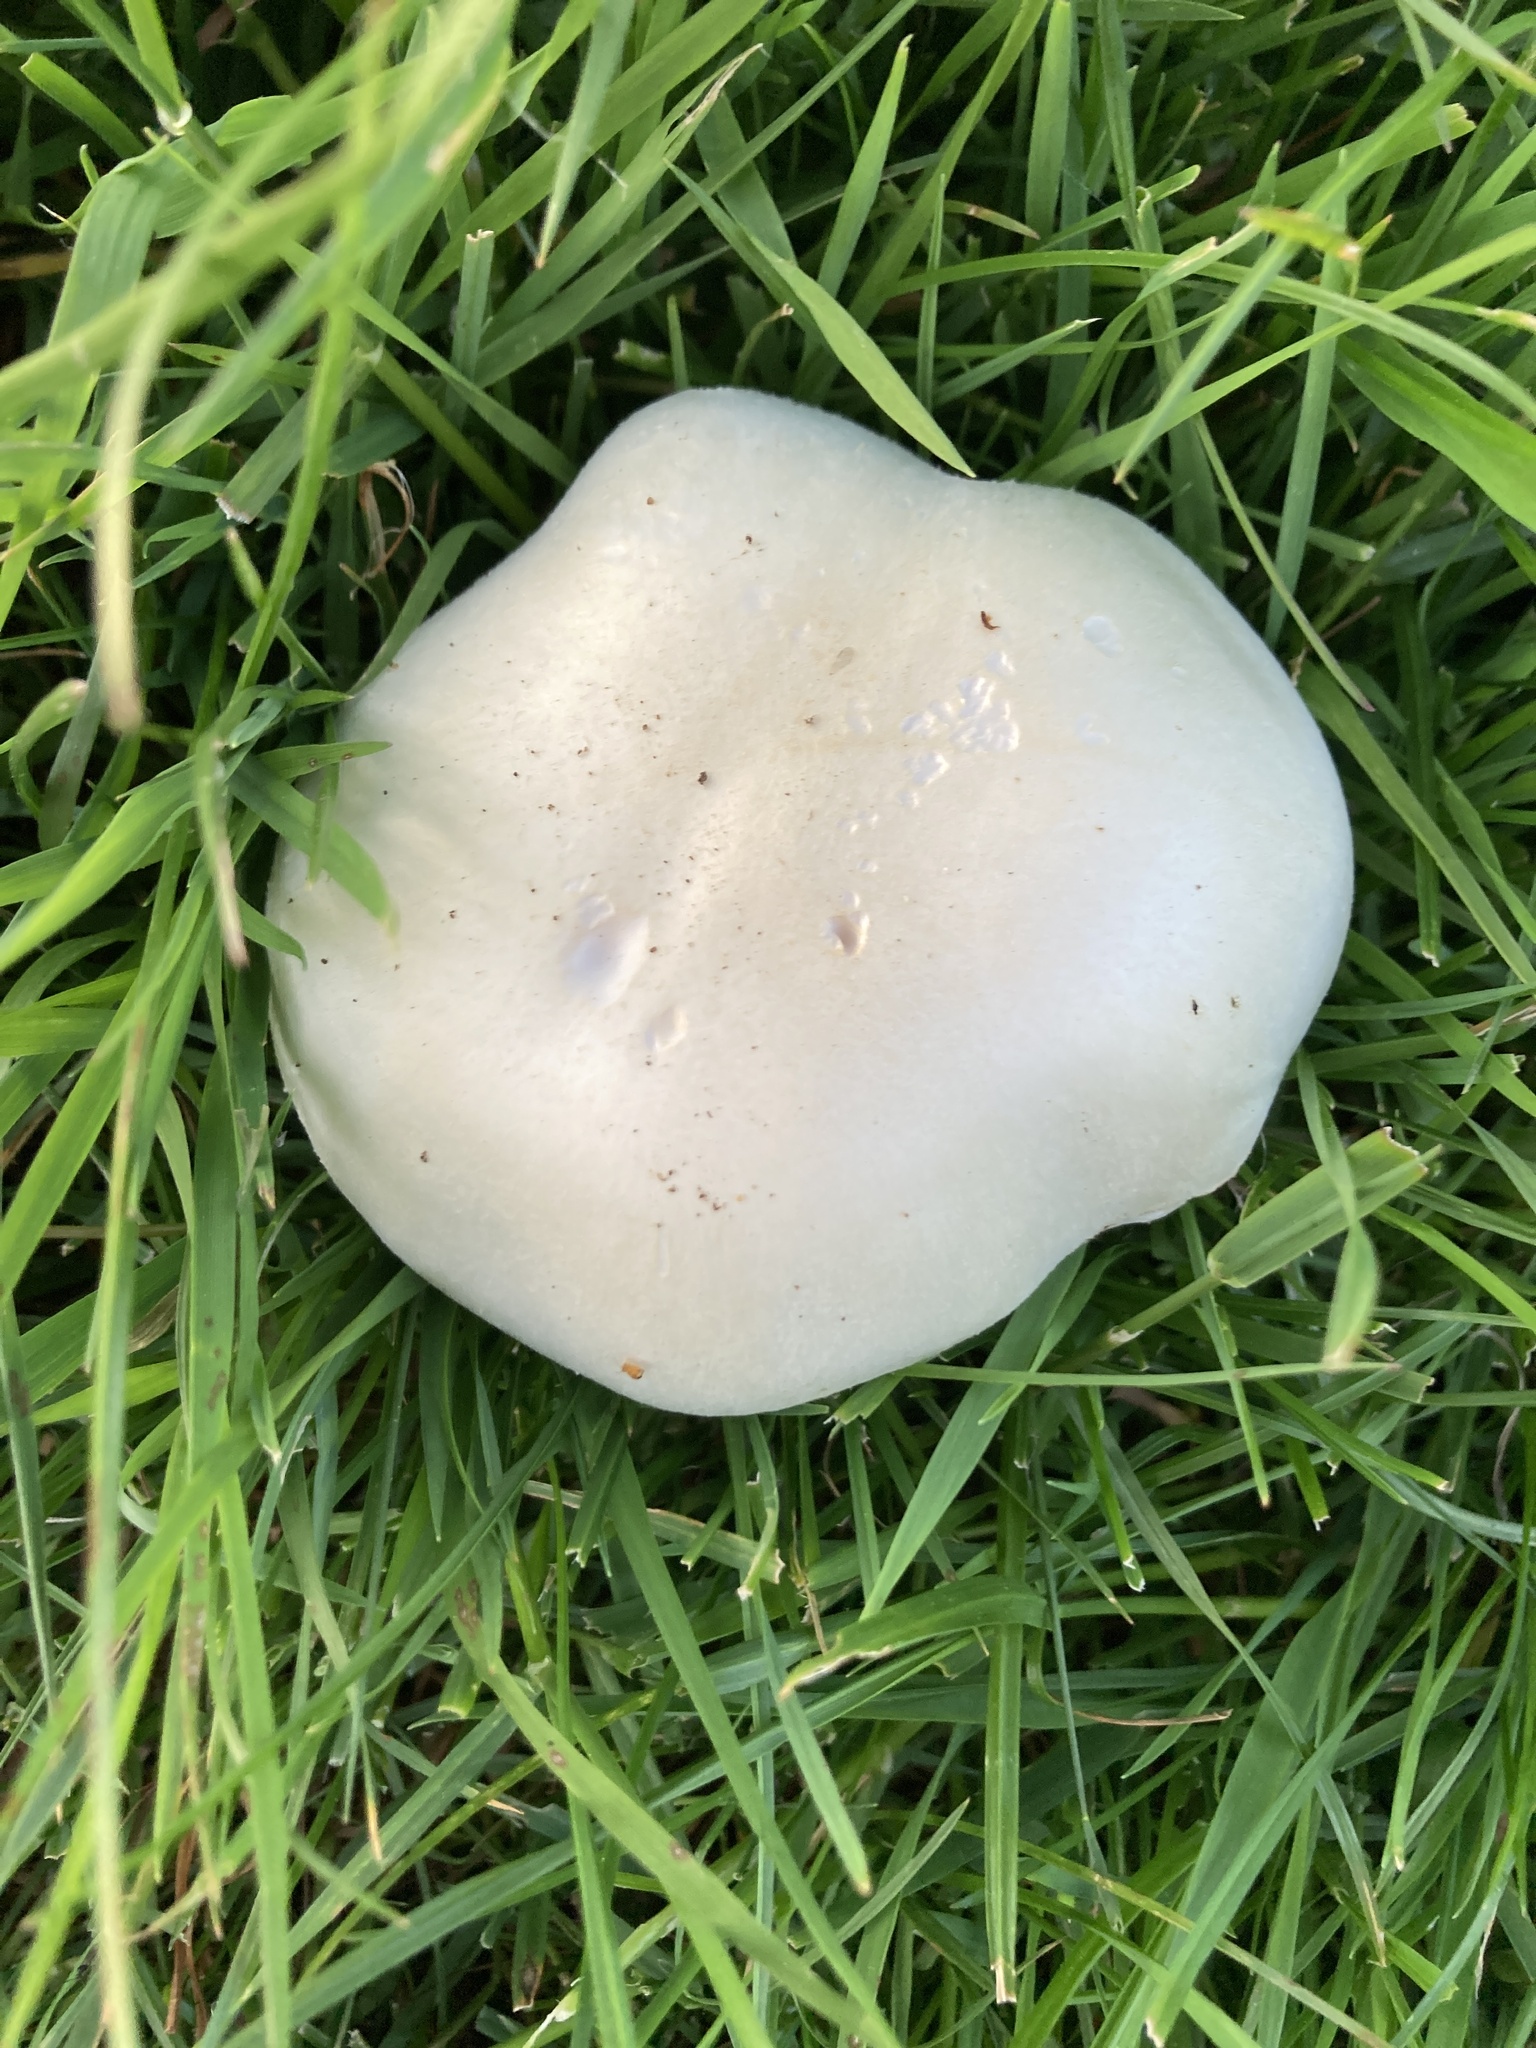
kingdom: Fungi
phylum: Basidiomycota
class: Agaricomycetes
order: Agaricales
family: Agaricaceae
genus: Agaricus
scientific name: Agaricus arvensis
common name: Horse mushroom
